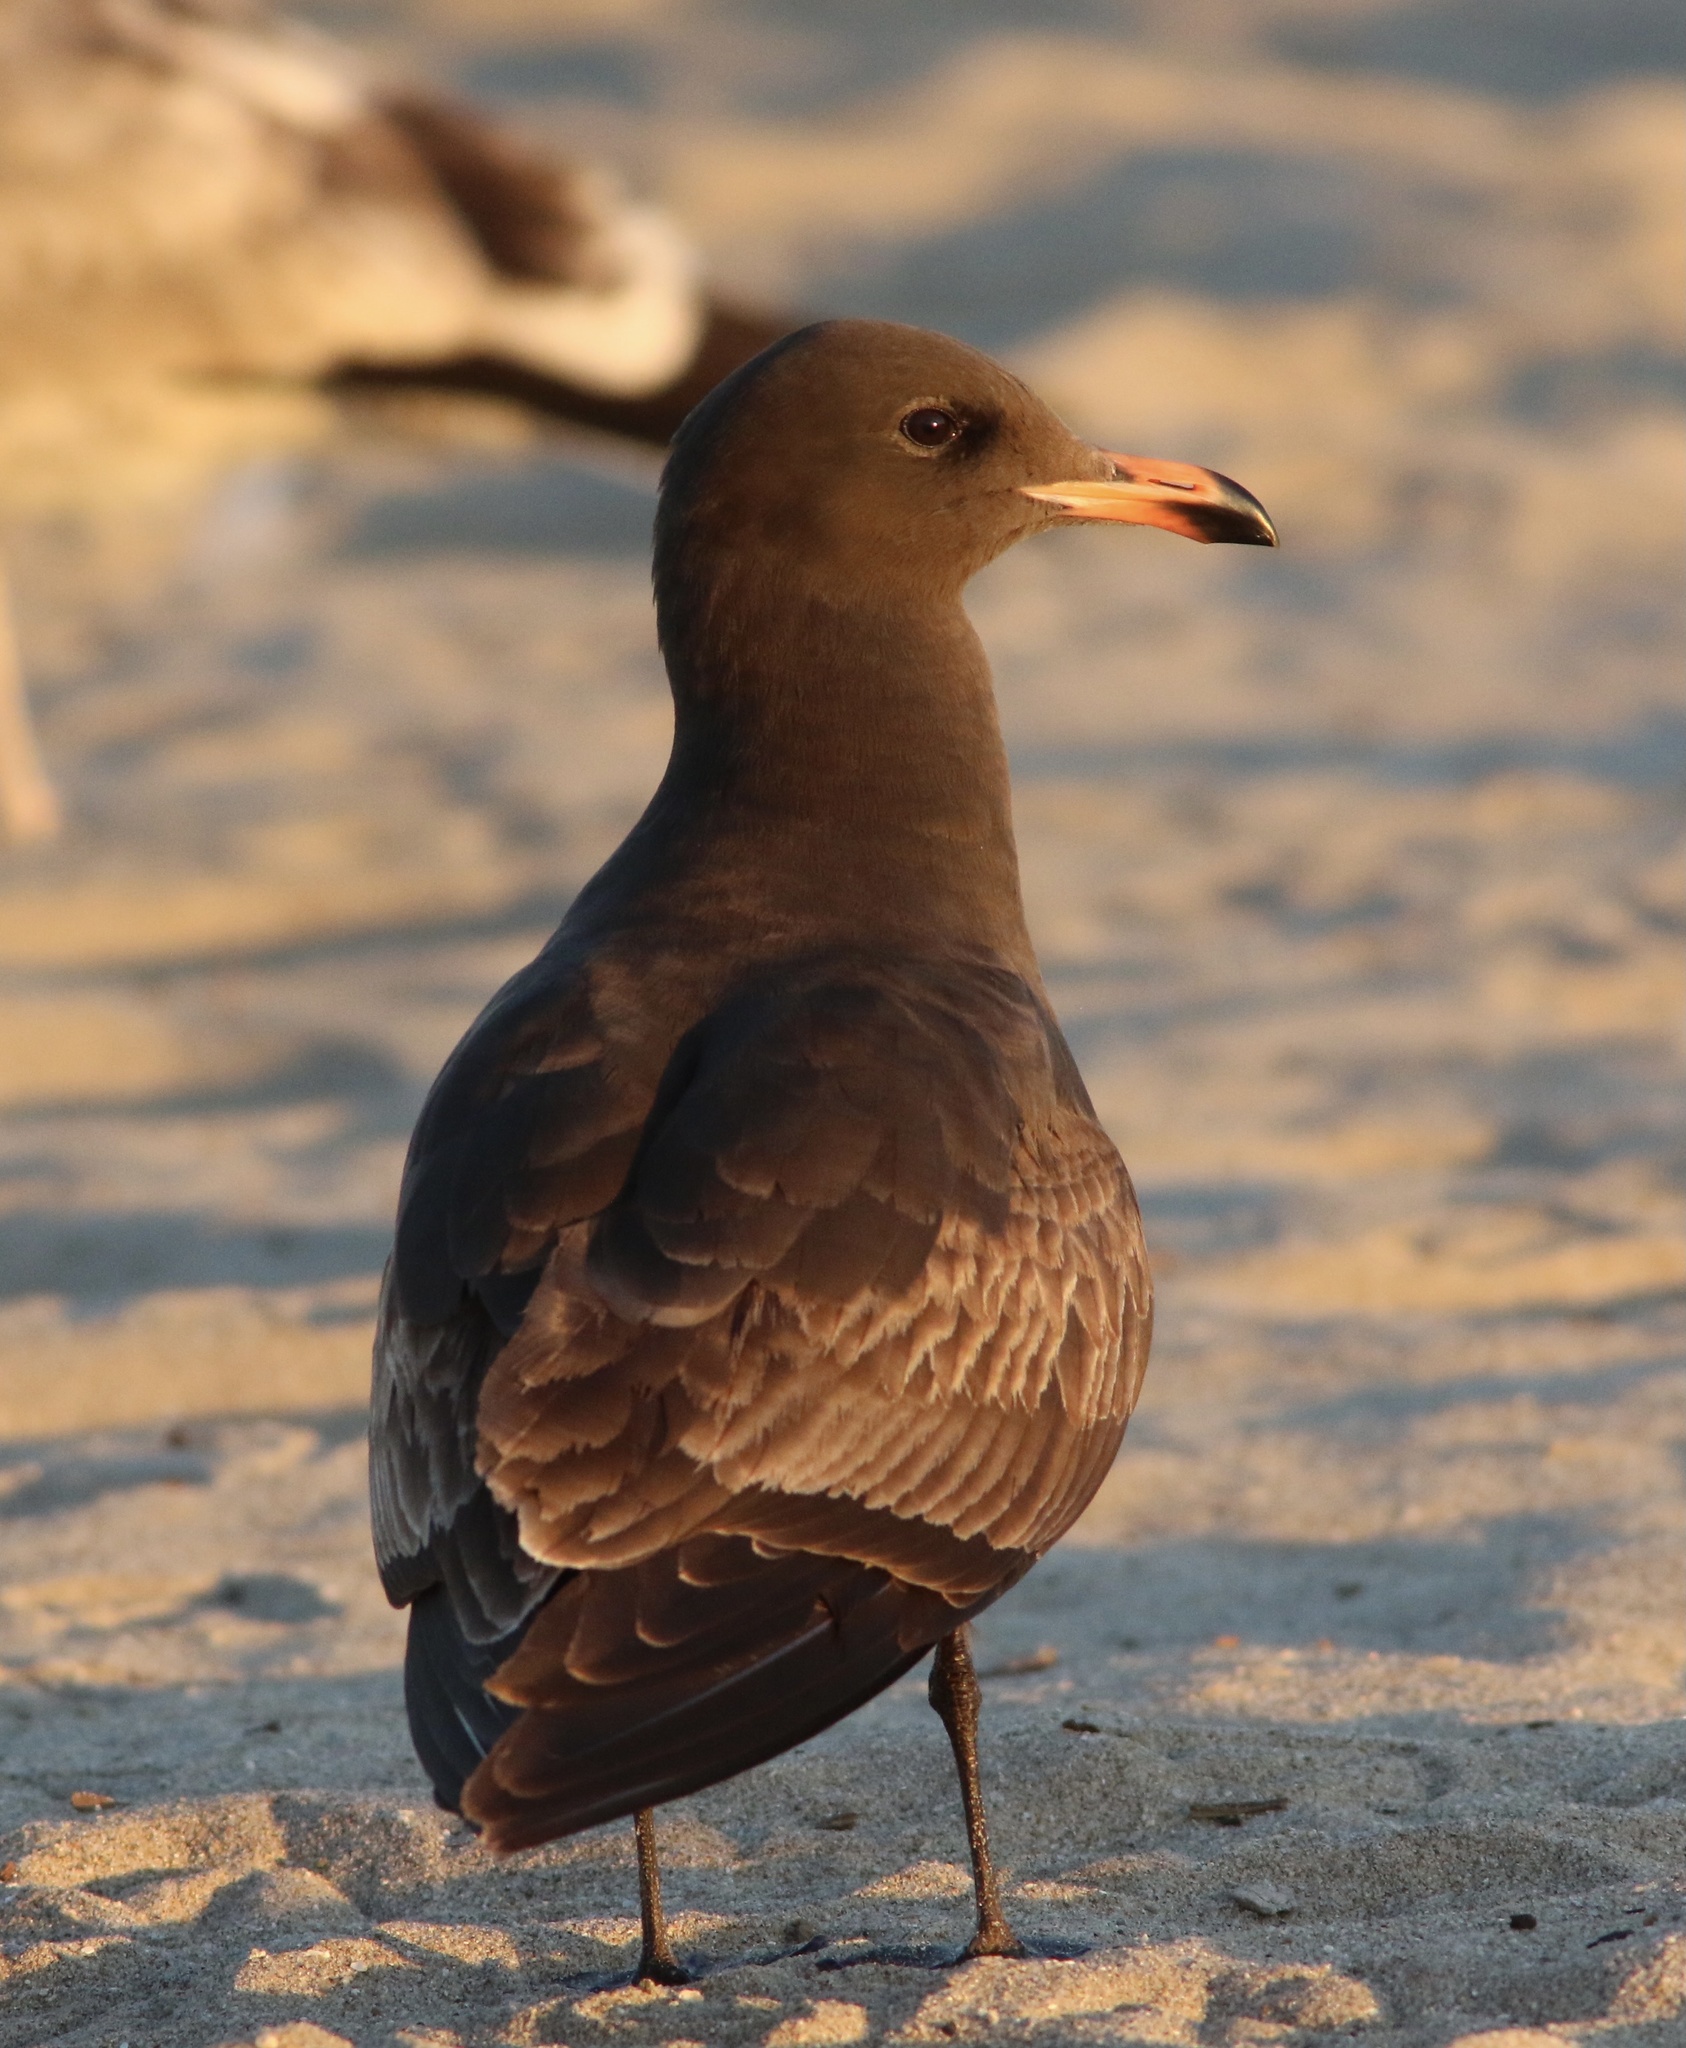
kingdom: Animalia
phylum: Chordata
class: Aves
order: Charadriiformes
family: Laridae
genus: Larus
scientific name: Larus heermanni
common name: Heermann's gull
